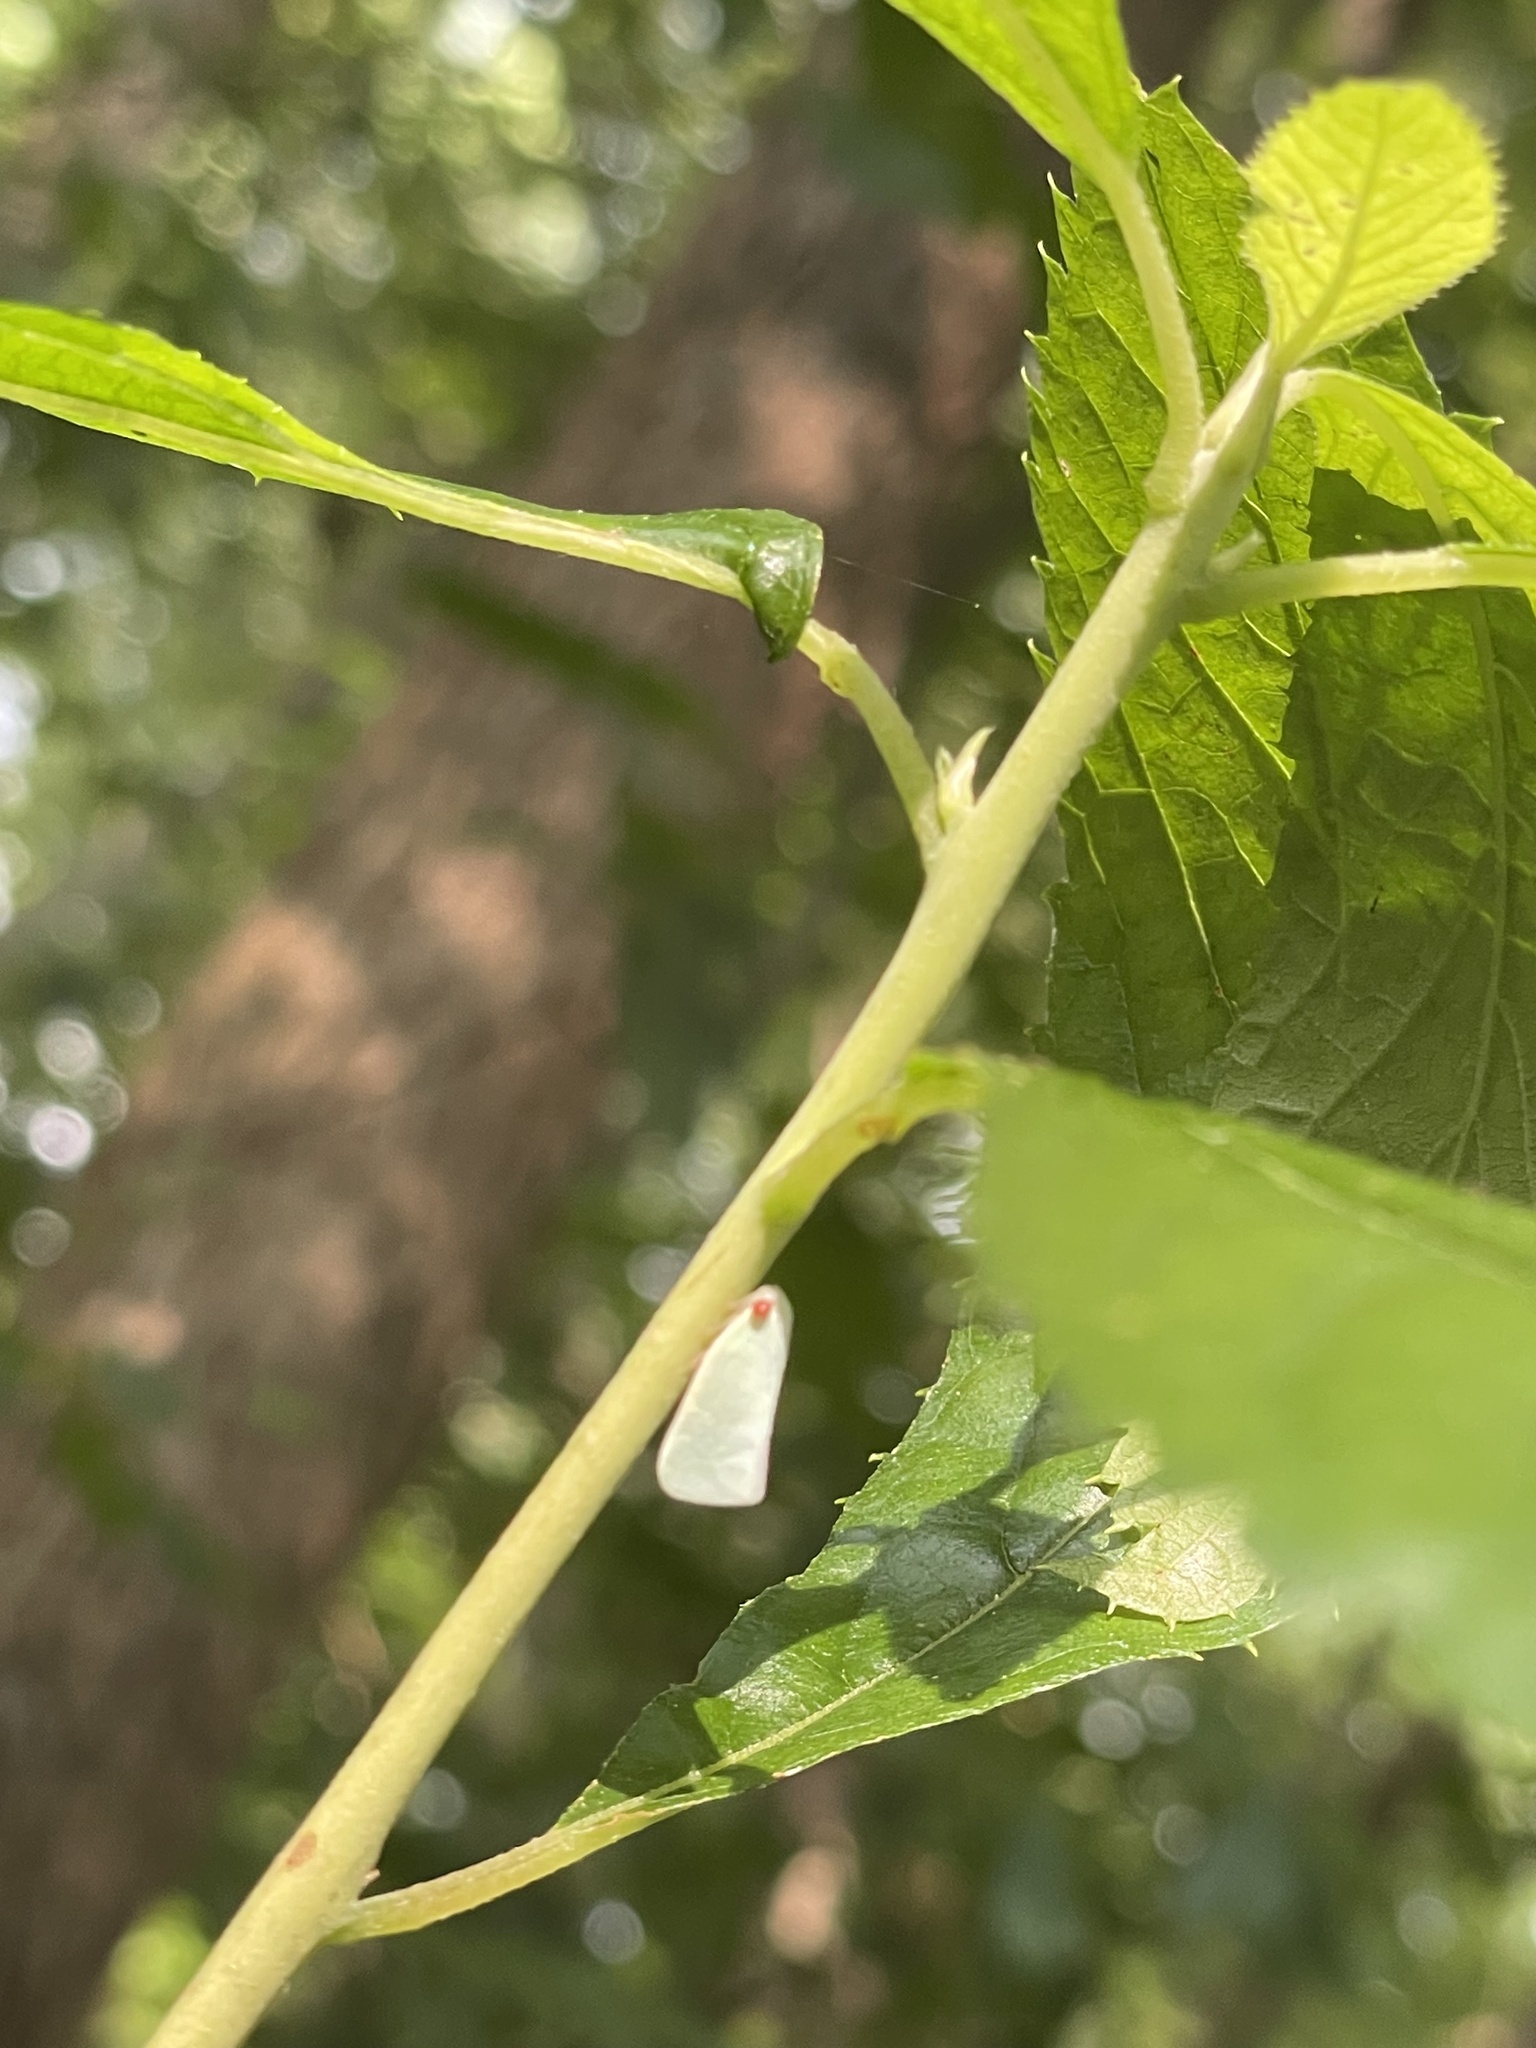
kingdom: Animalia
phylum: Arthropoda
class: Insecta
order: Hemiptera
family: Flatidae
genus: Flatormenis
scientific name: Flatormenis proxima
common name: Northern flatid planthopper
